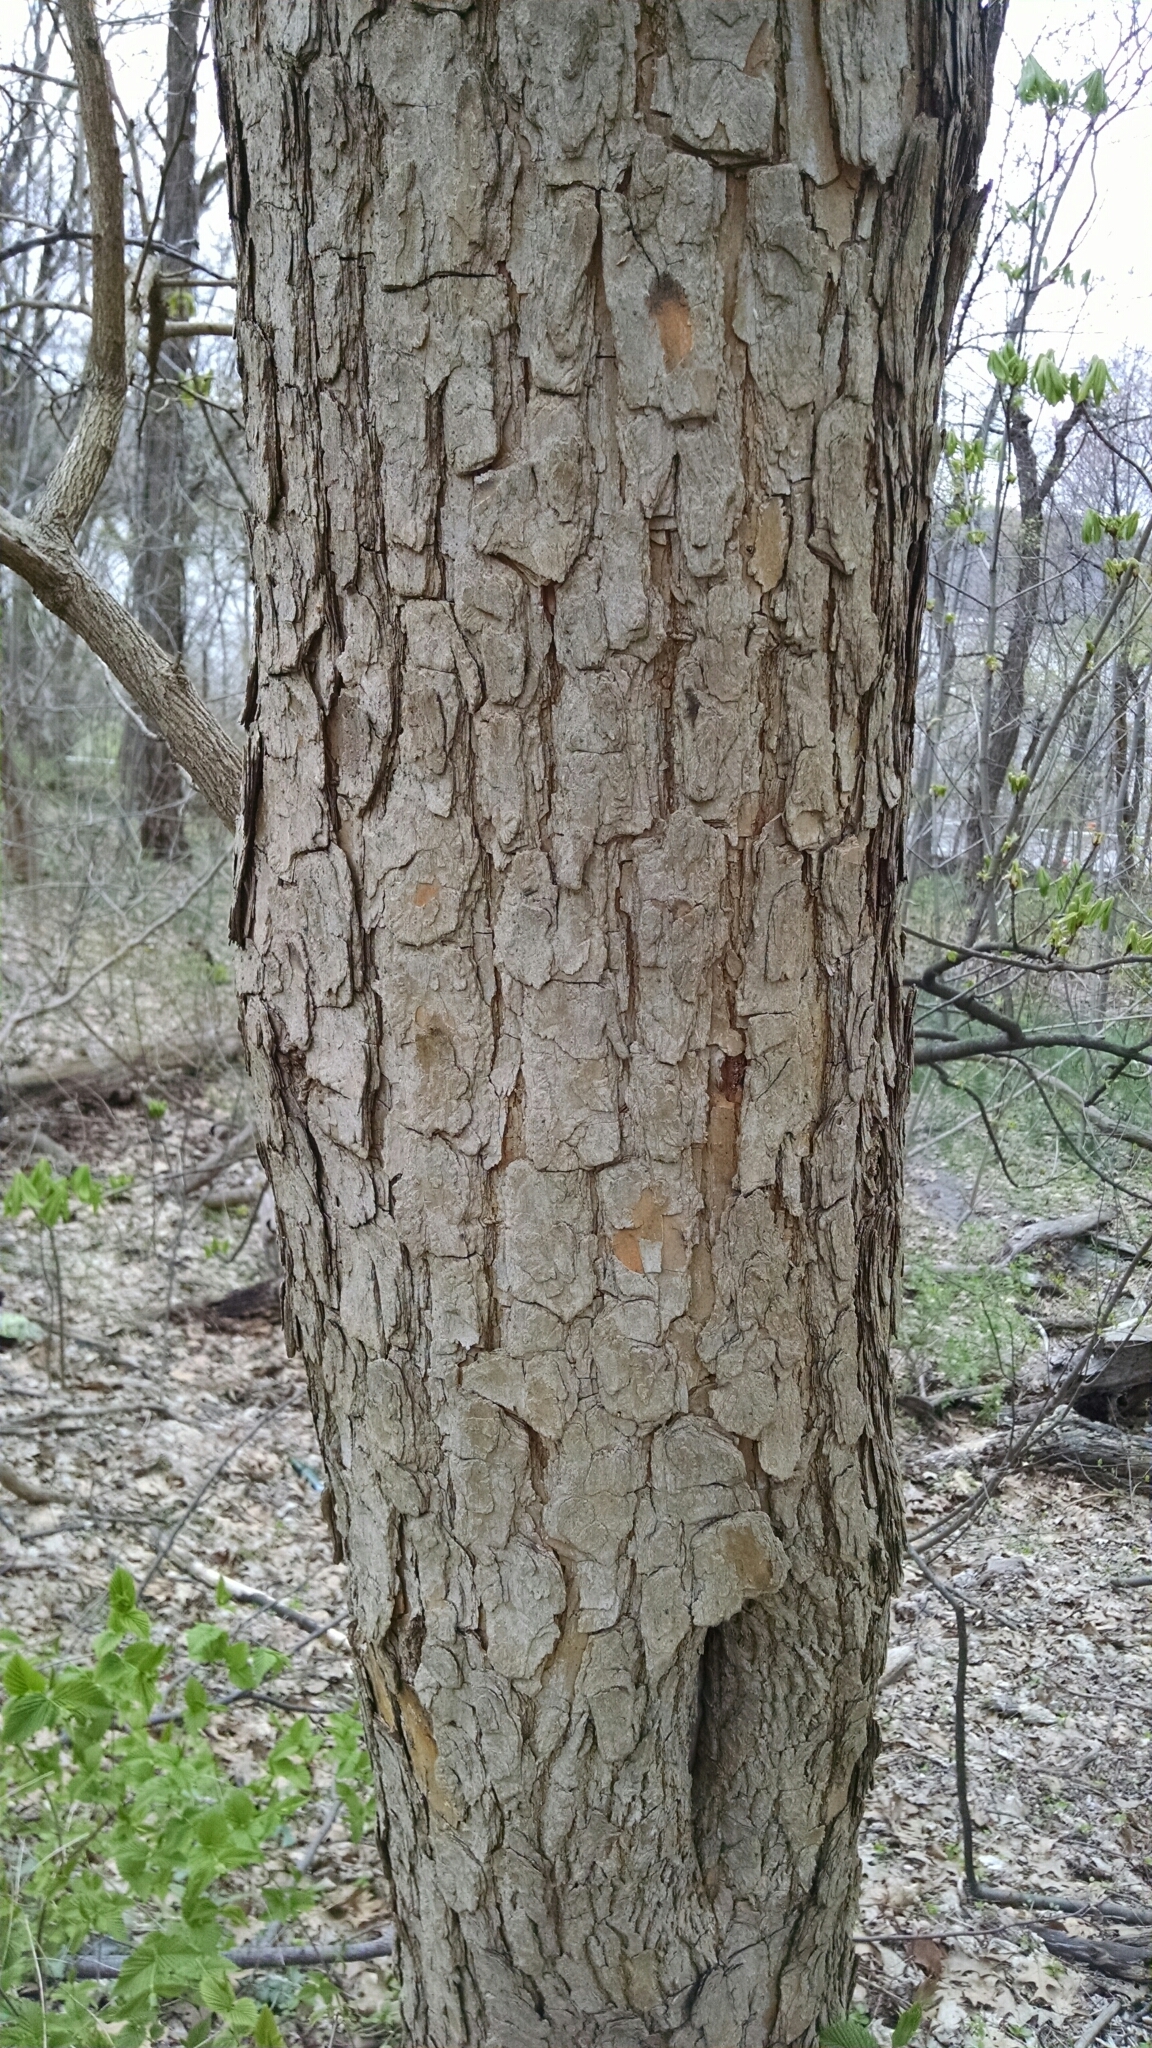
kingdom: Plantae
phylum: Tracheophyta
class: Magnoliopsida
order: Rosales
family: Moraceae
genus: Maclura
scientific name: Maclura pomifera
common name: Osage-orange
